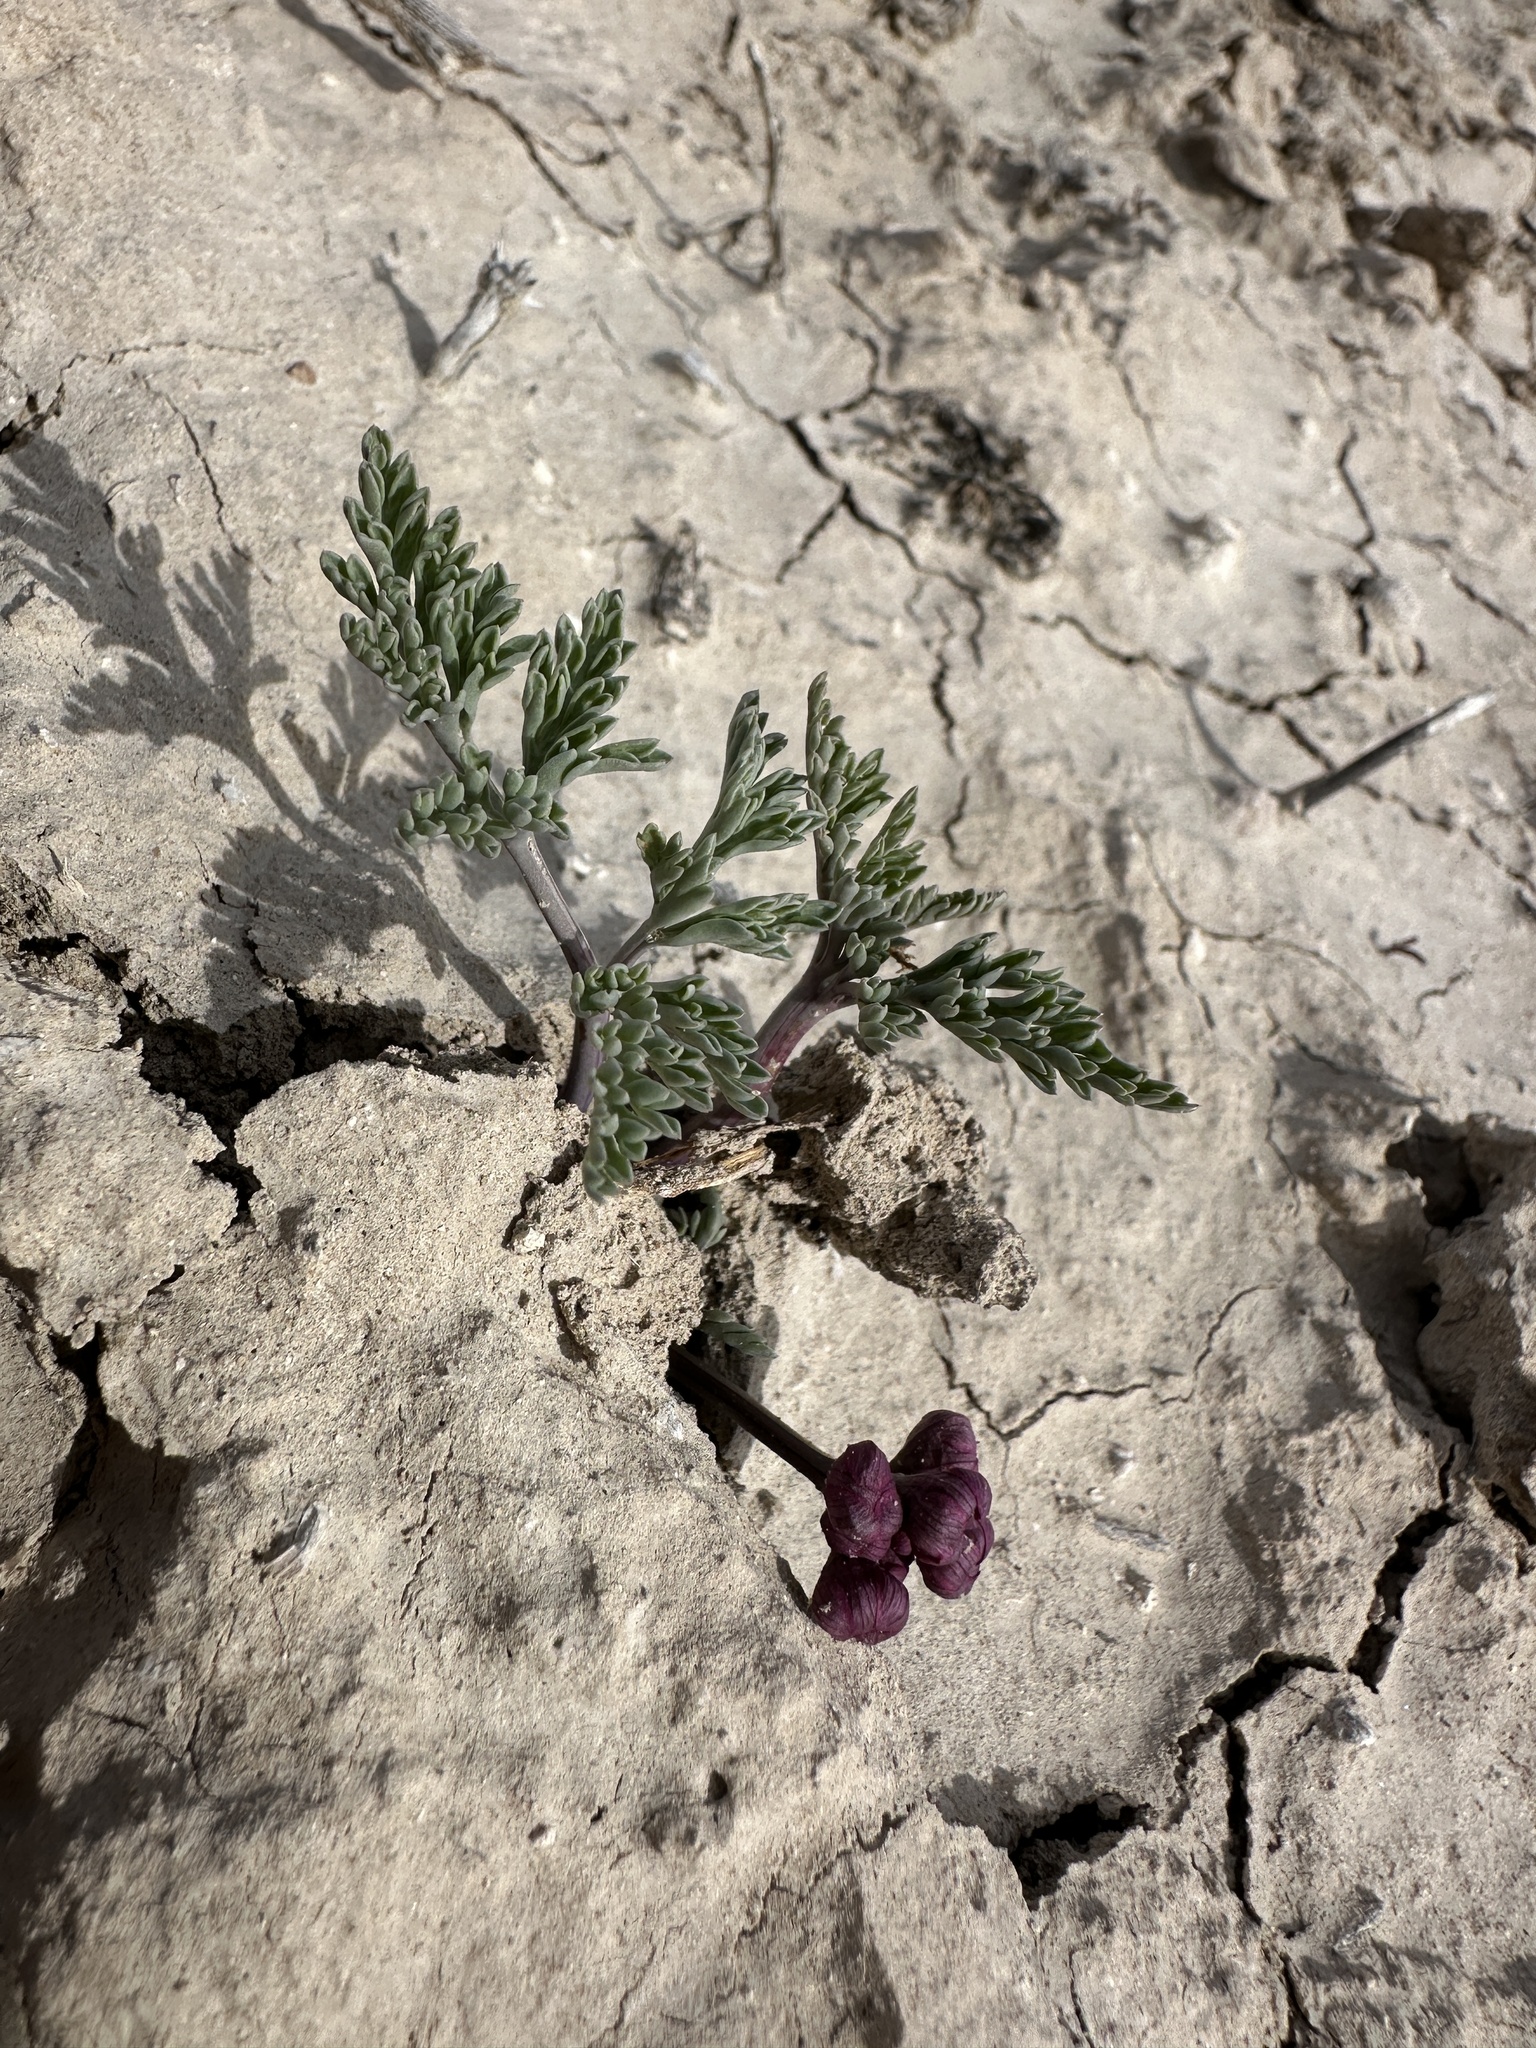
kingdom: Plantae
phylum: Tracheophyta
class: Magnoliopsida
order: Apiales
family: Apiaceae
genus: Vesper
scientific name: Vesper multinervatus
